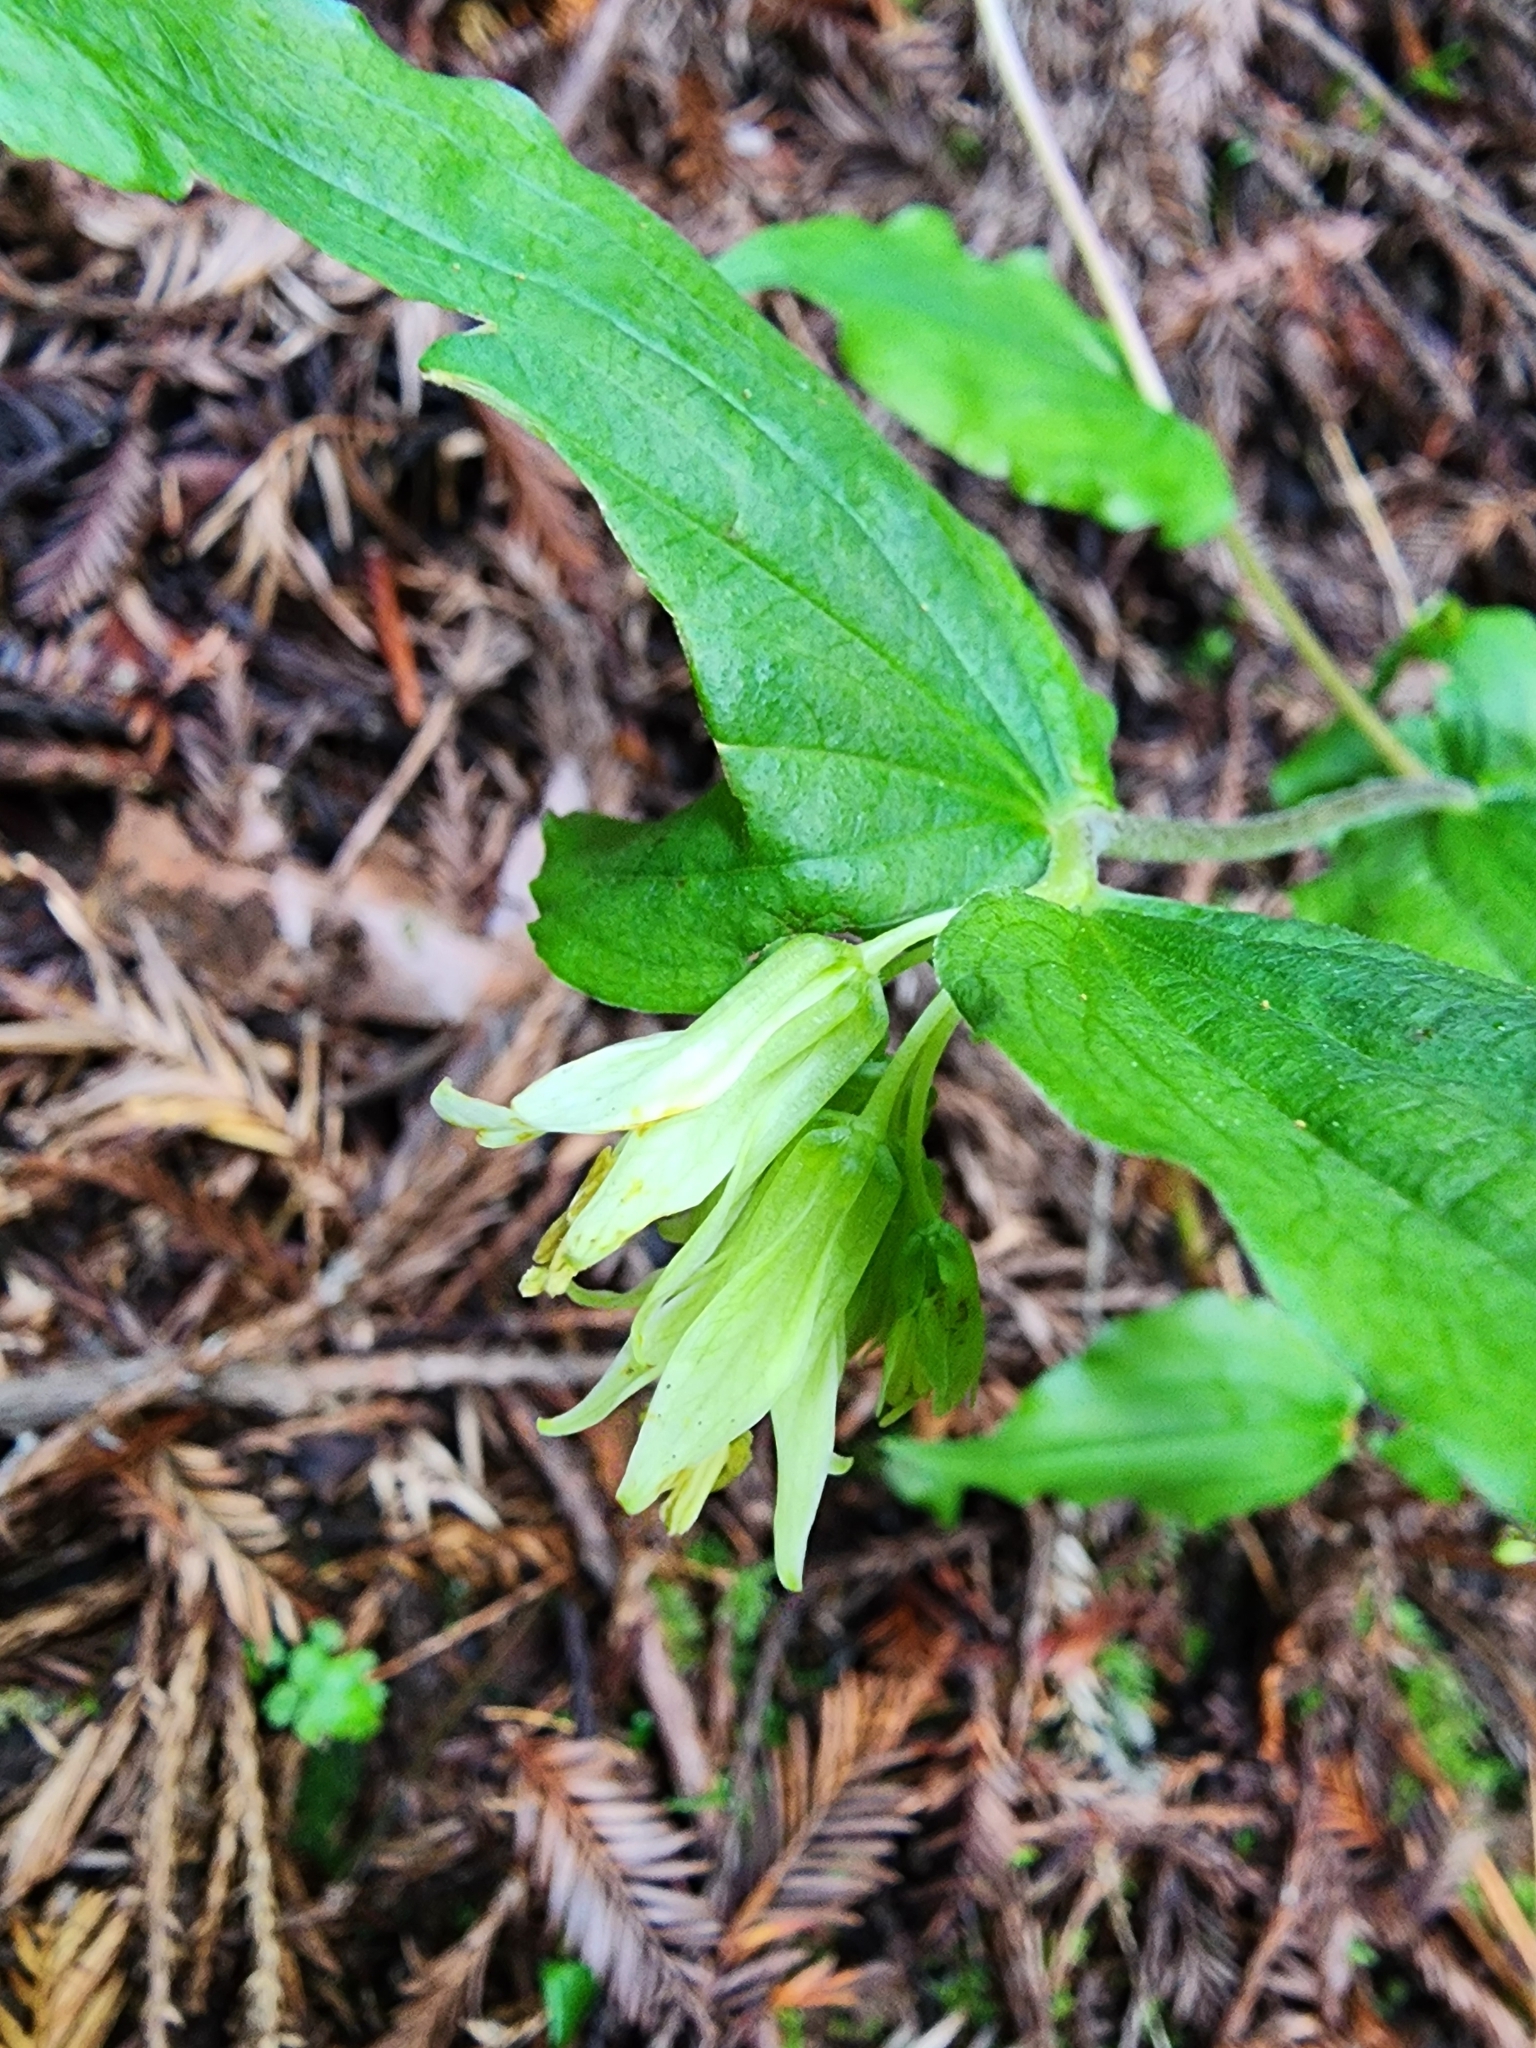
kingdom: Plantae
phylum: Tracheophyta
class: Liliopsida
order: Liliales
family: Liliaceae
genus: Prosartes
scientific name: Prosartes hookeri
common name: Fairy-bells
